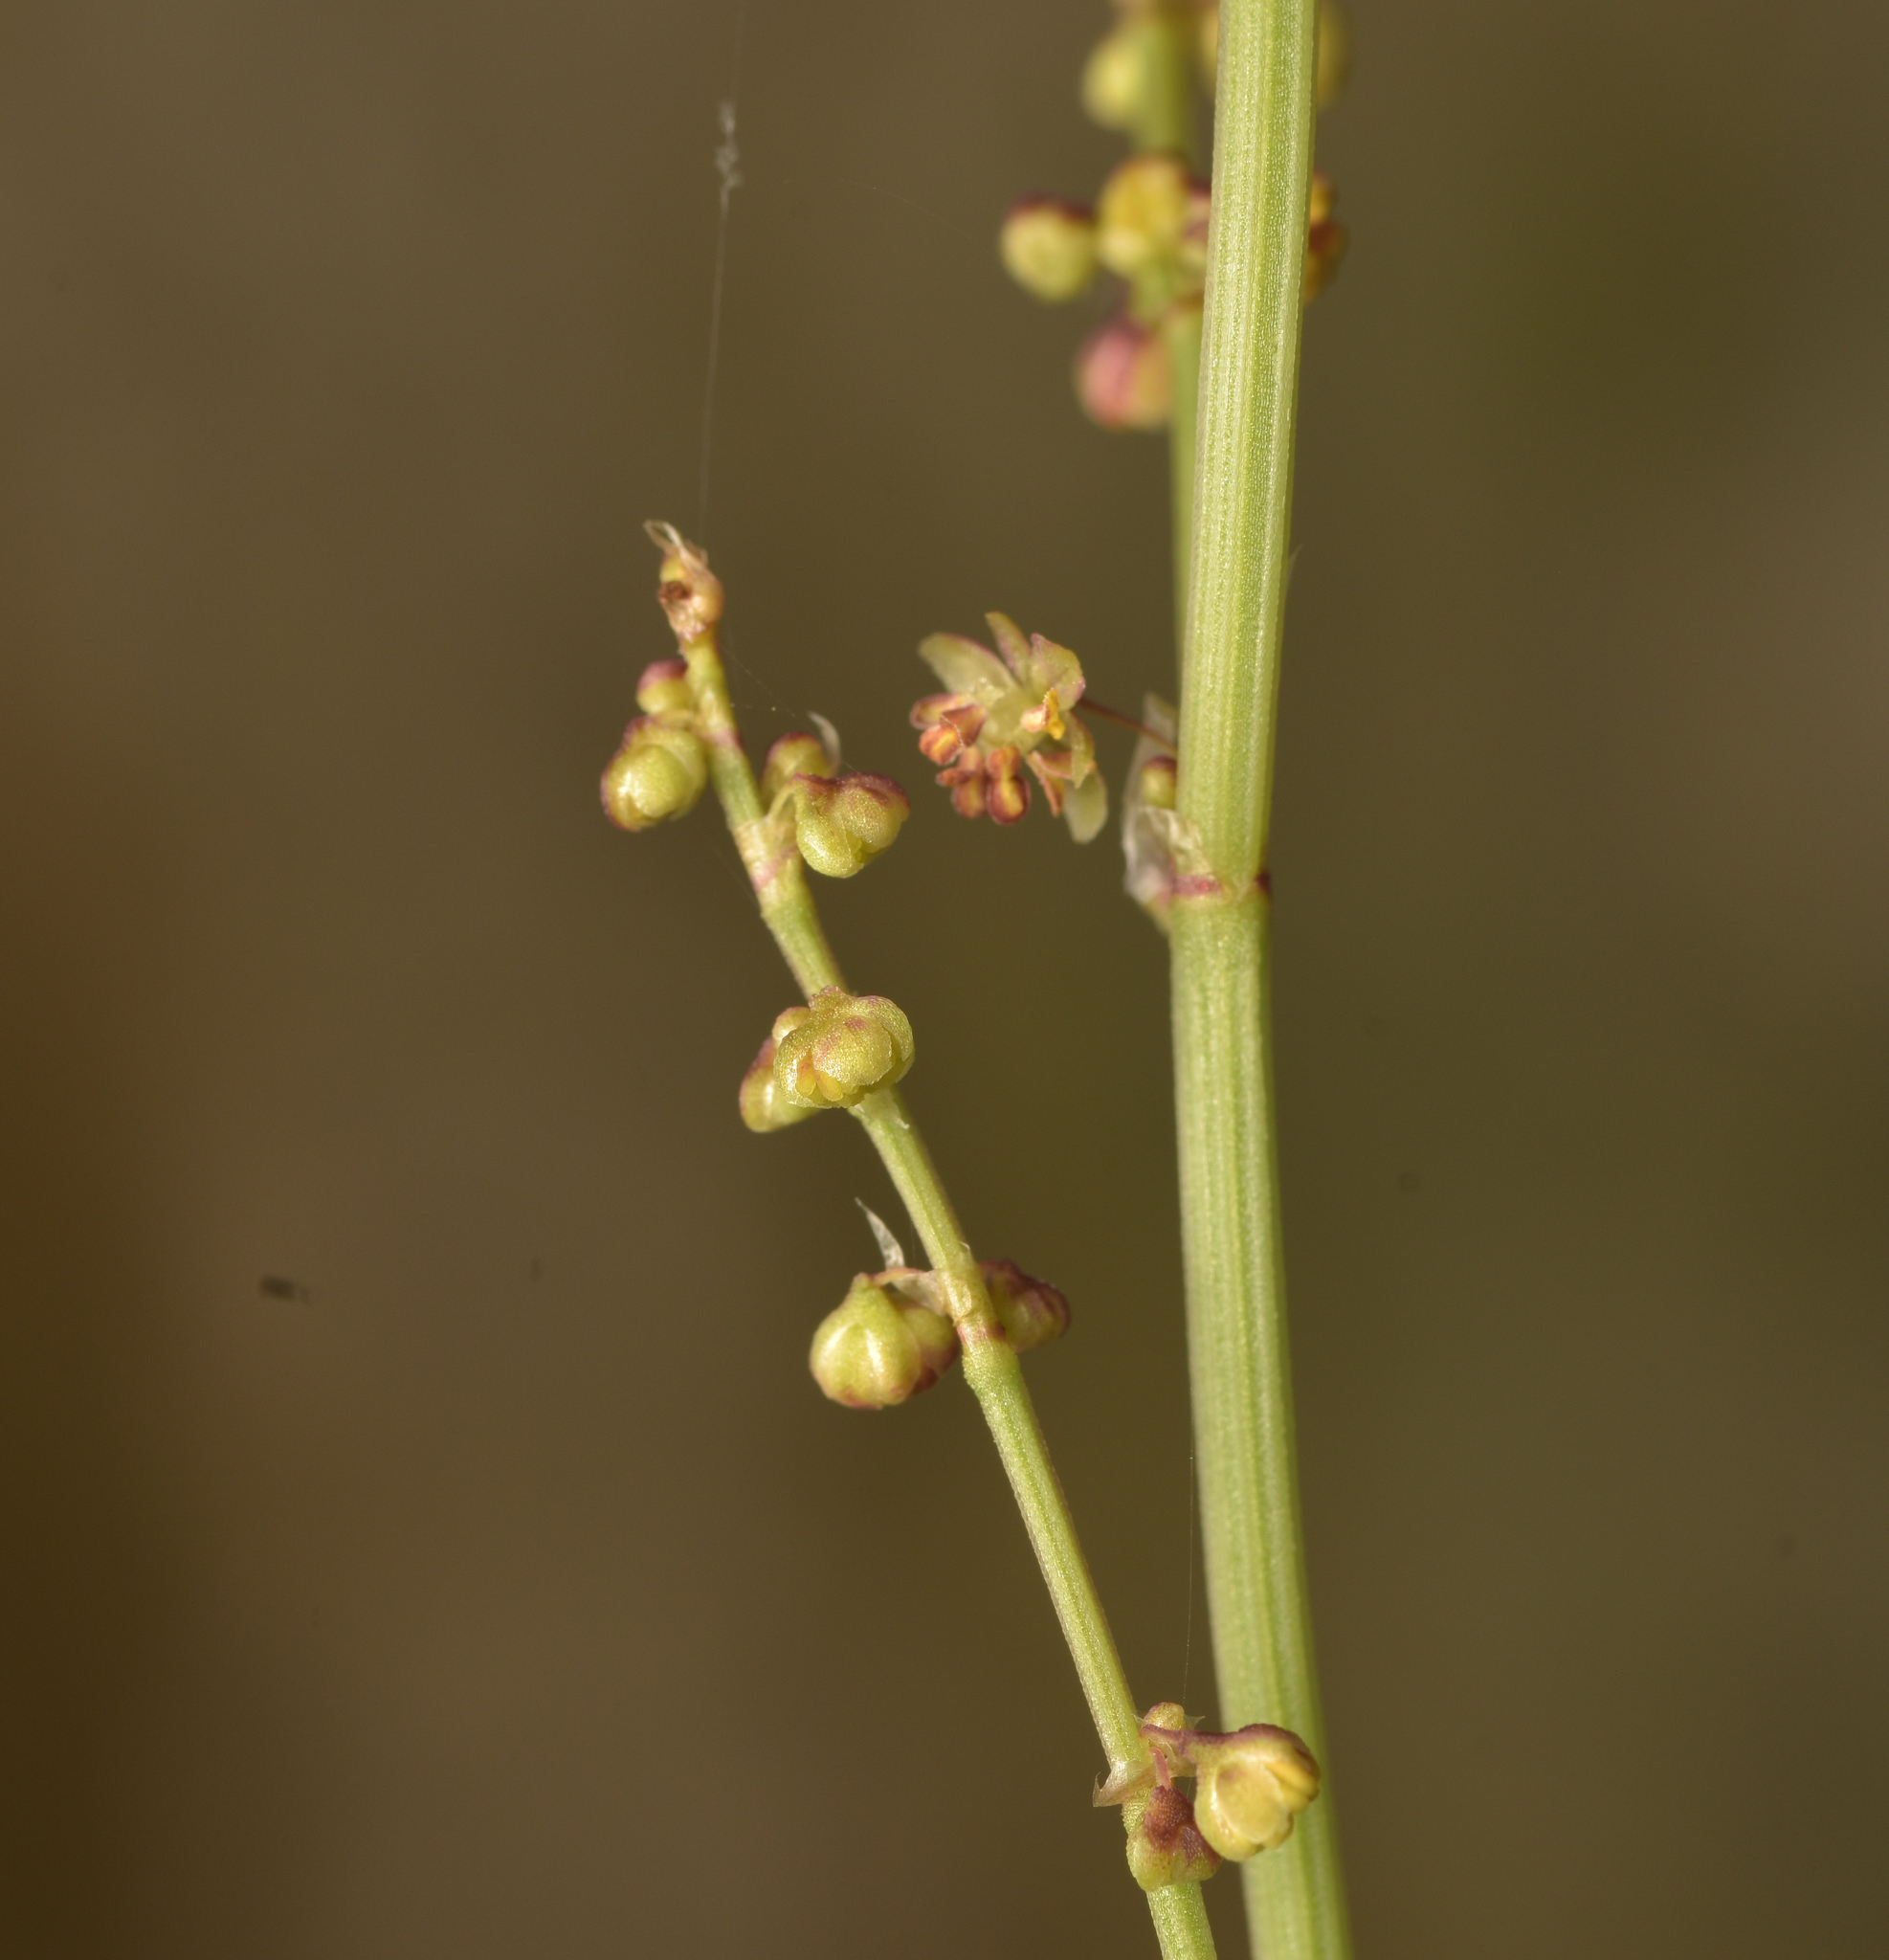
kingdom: Plantae
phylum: Tracheophyta
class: Magnoliopsida
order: Caryophyllales
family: Polygonaceae
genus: Rumex
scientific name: Rumex acetosella
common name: Common sheep sorrel
